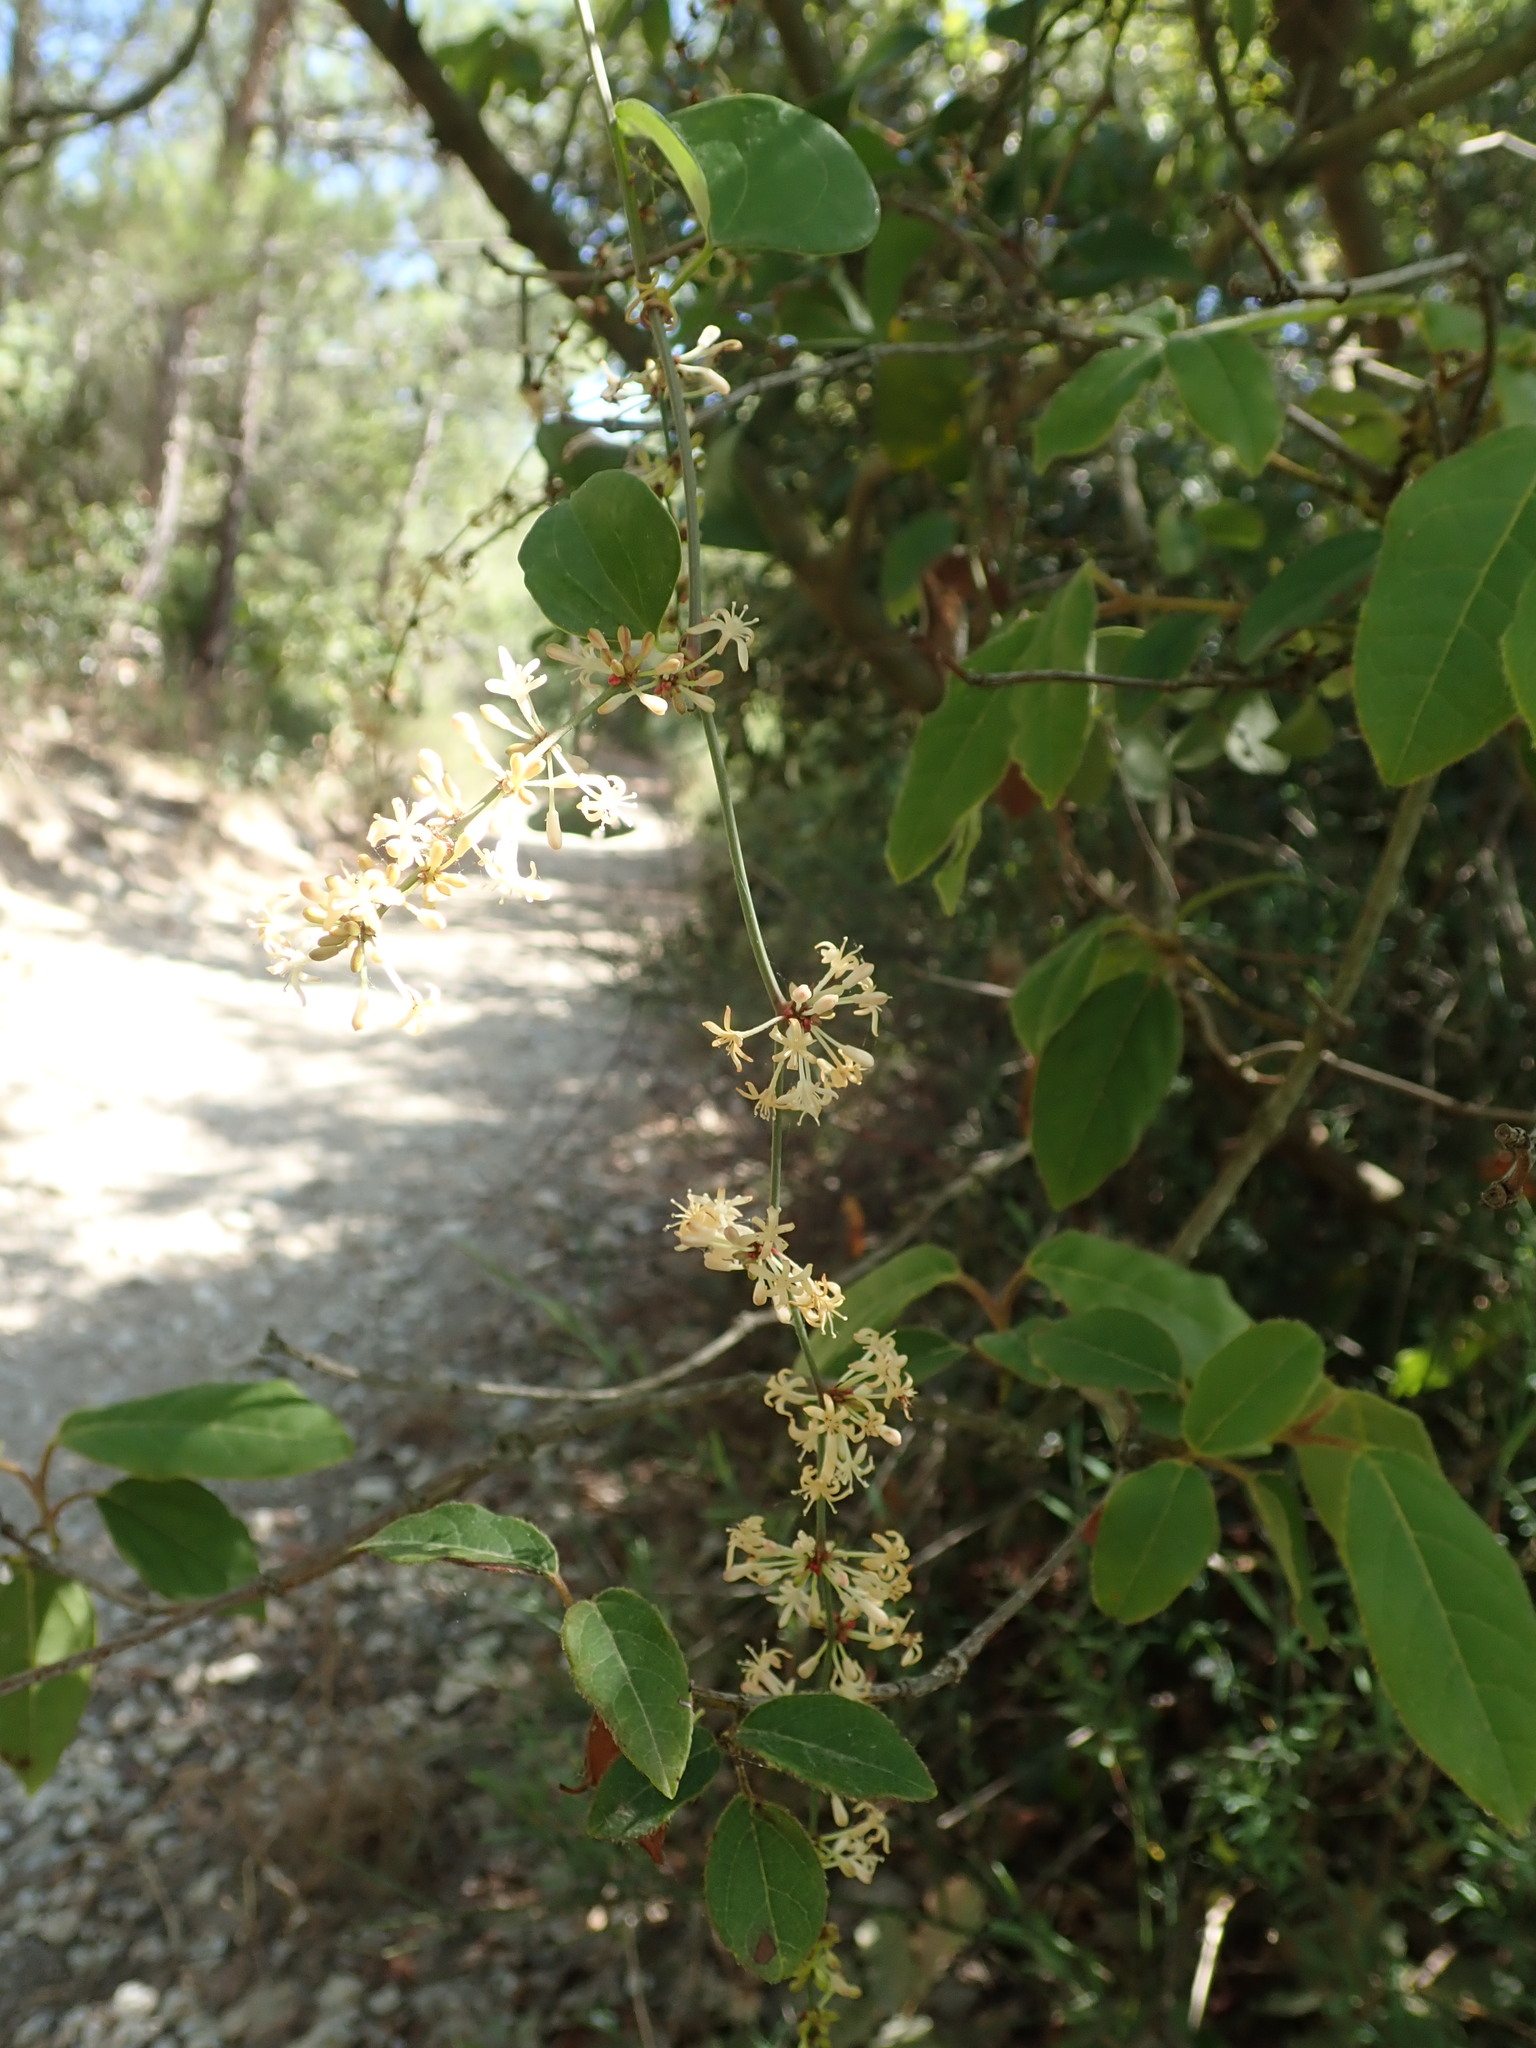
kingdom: Plantae
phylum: Tracheophyta
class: Liliopsida
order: Liliales
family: Smilacaceae
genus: Smilax
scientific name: Smilax aspera
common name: Common smilax
